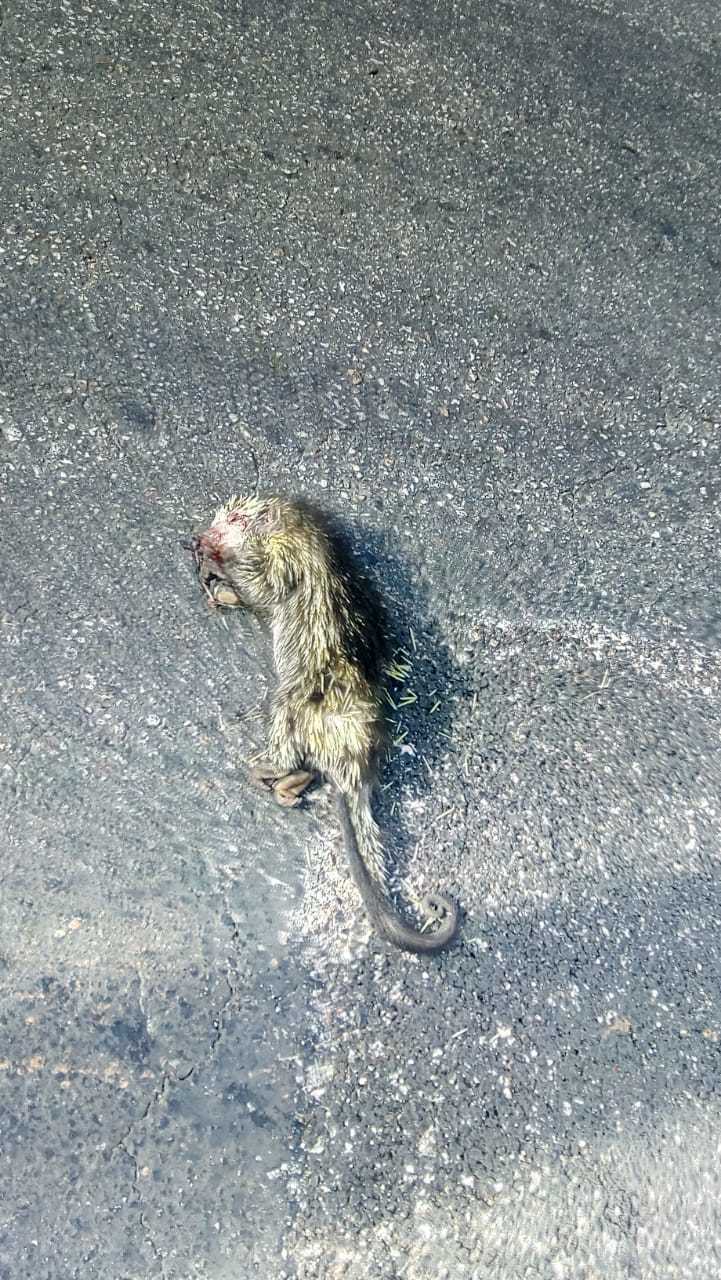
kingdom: Animalia
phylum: Chordata
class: Mammalia
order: Rodentia
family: Erethizontidae
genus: Sphiggurus
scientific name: Sphiggurus mexicanus
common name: Mexican hairy dwarf porcupine
